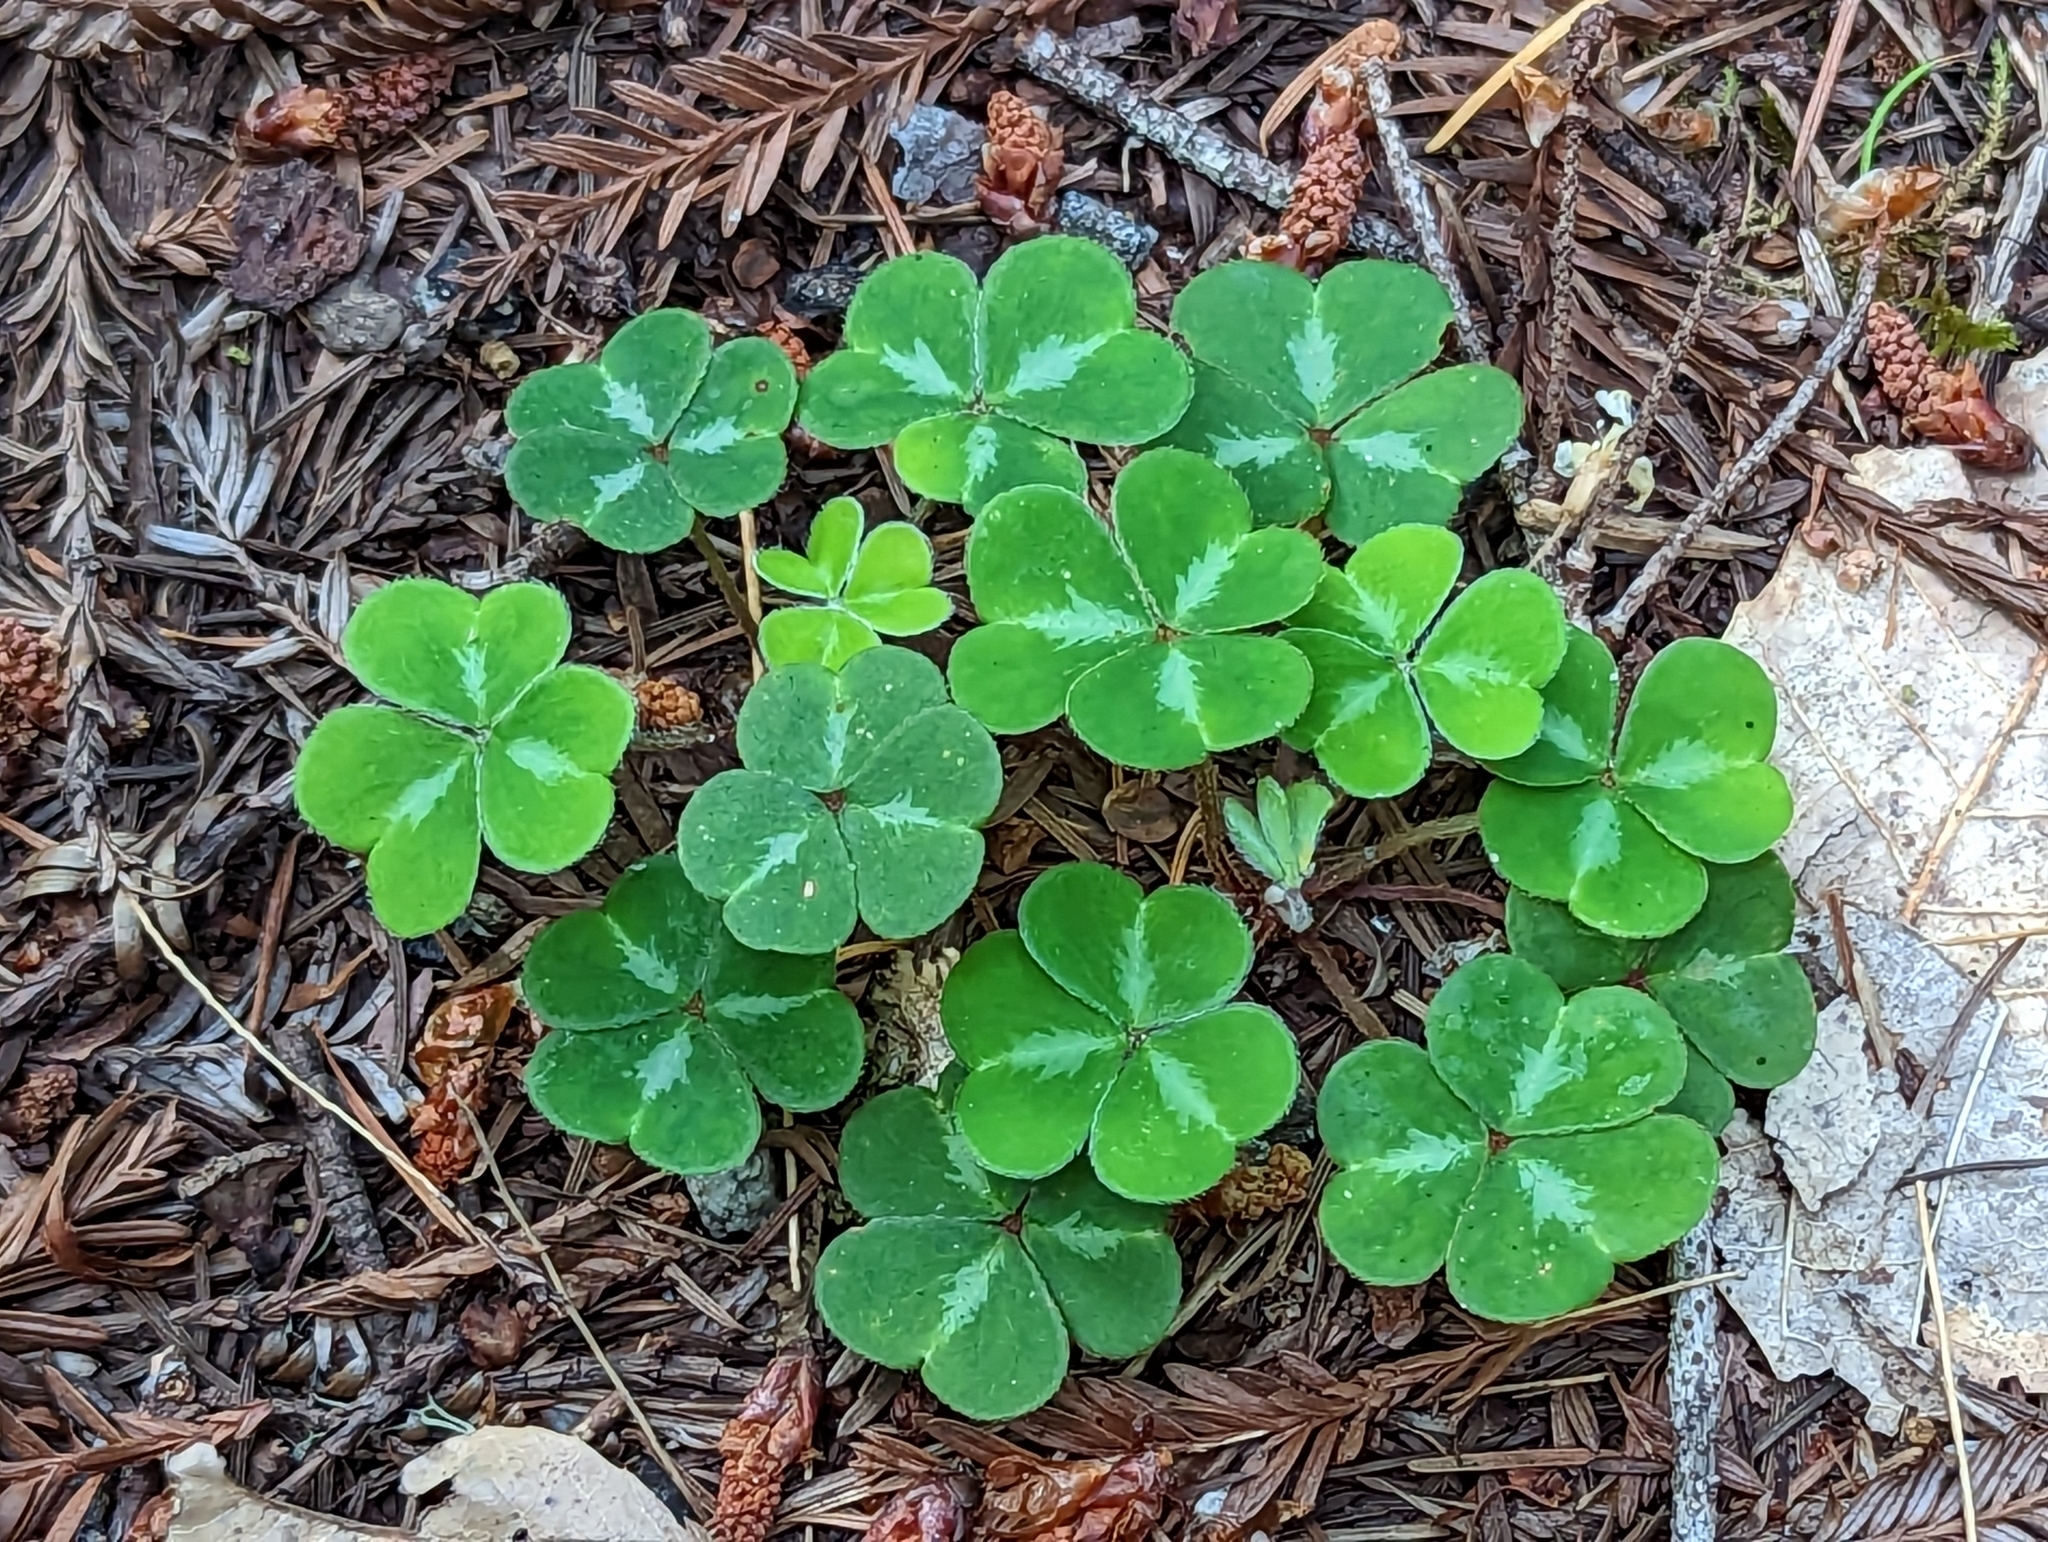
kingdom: Plantae
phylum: Tracheophyta
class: Magnoliopsida
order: Oxalidales
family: Oxalidaceae
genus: Oxalis
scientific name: Oxalis oregana
